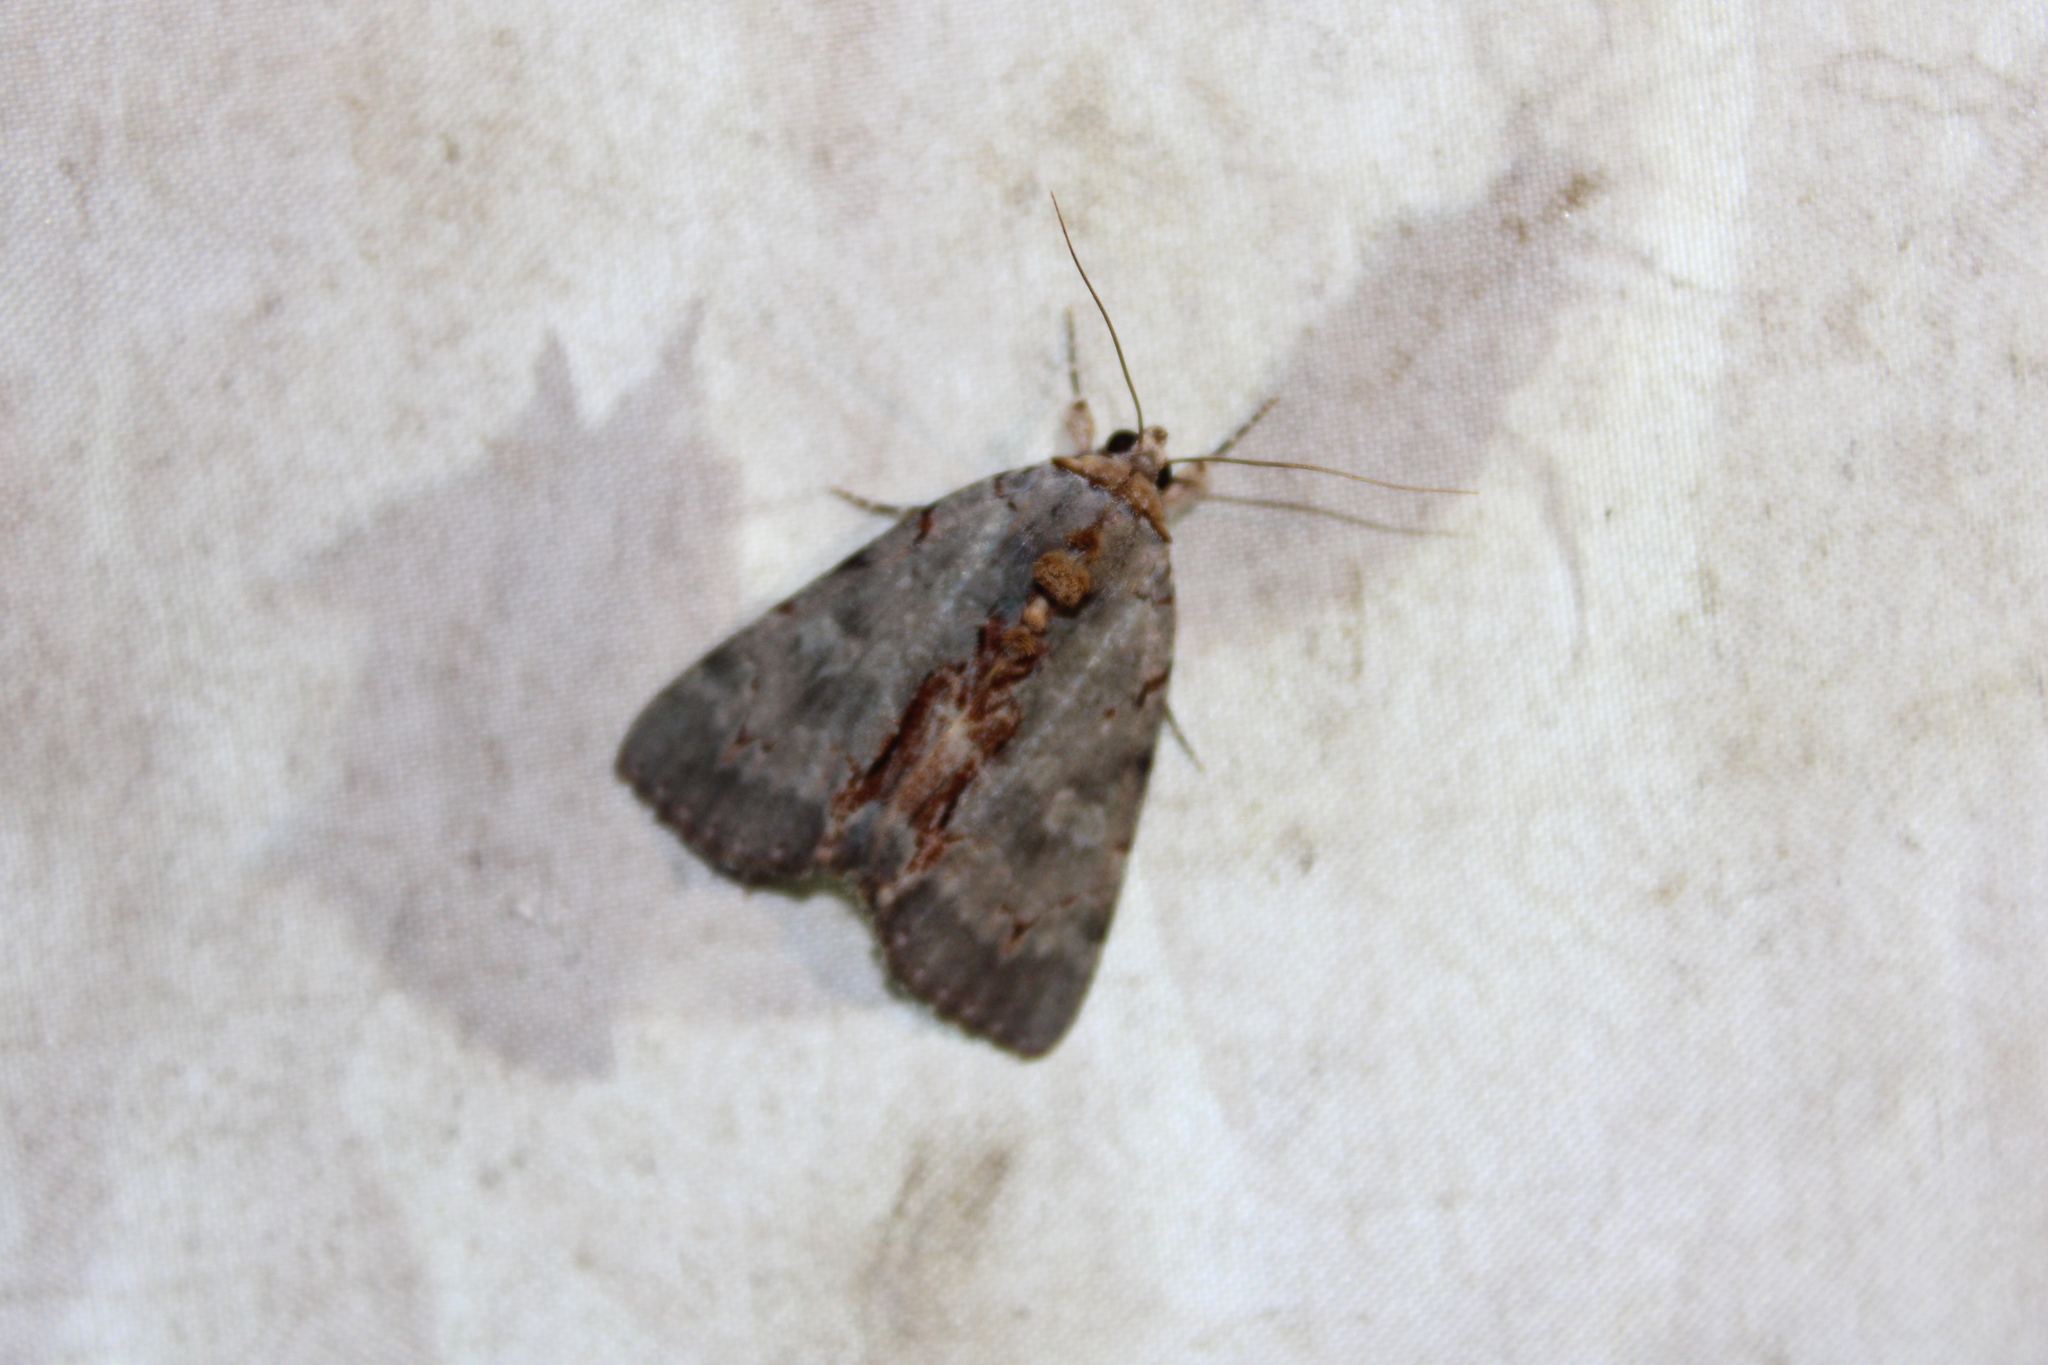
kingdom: Animalia
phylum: Arthropoda
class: Insecta
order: Lepidoptera
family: Erebidae
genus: Catocala
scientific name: Catocala grynea
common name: Woody underwing
